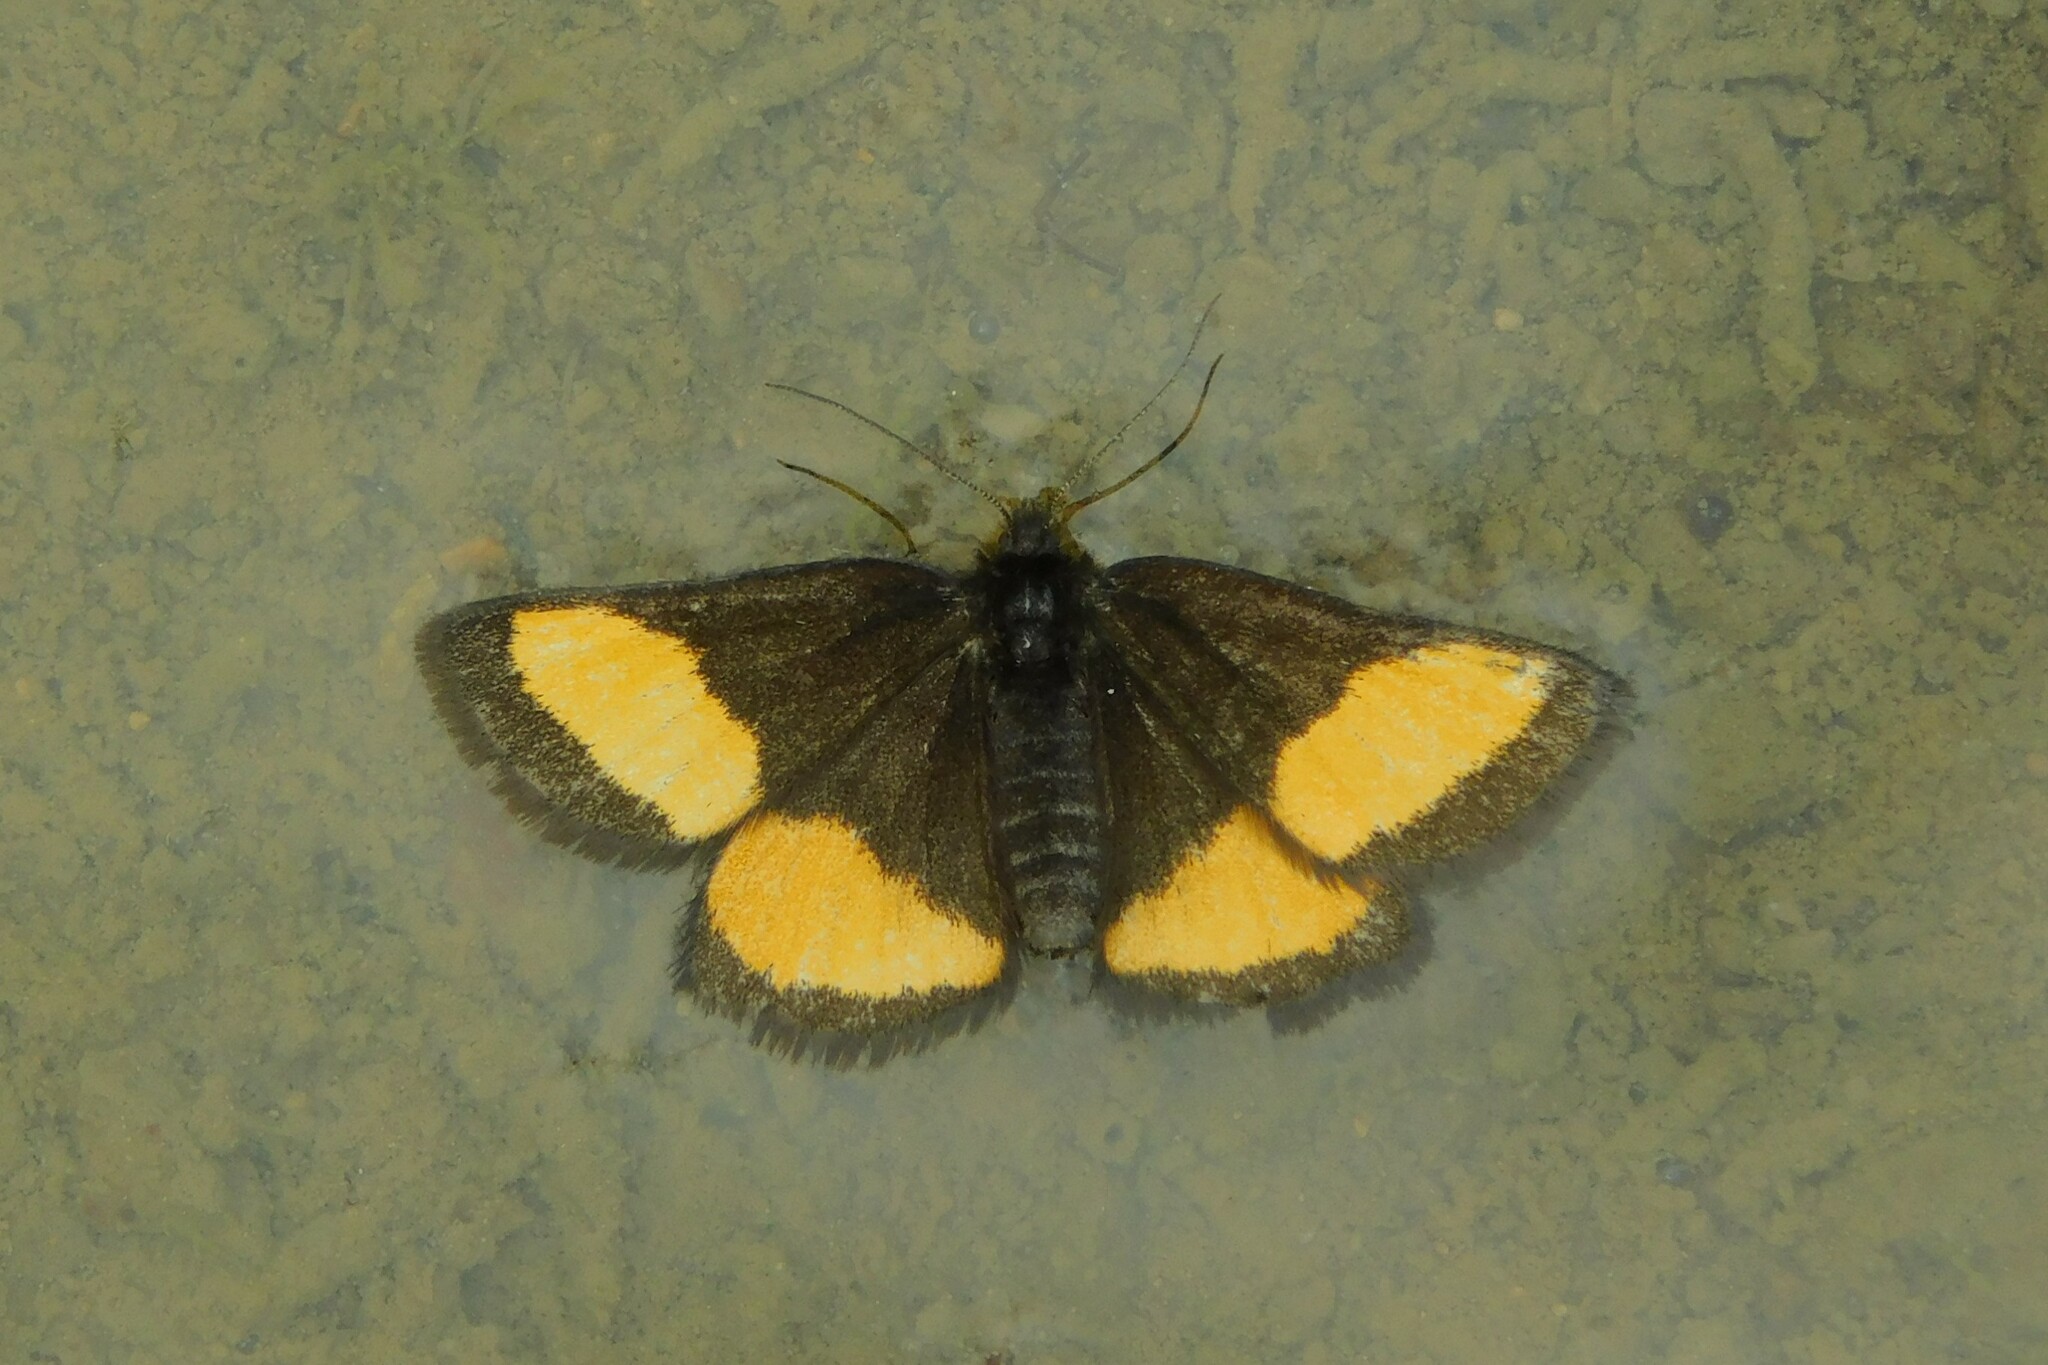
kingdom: Animalia
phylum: Arthropoda
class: Insecta
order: Lepidoptera
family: Geometridae
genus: Psodos
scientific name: Psodos quadrifaria
